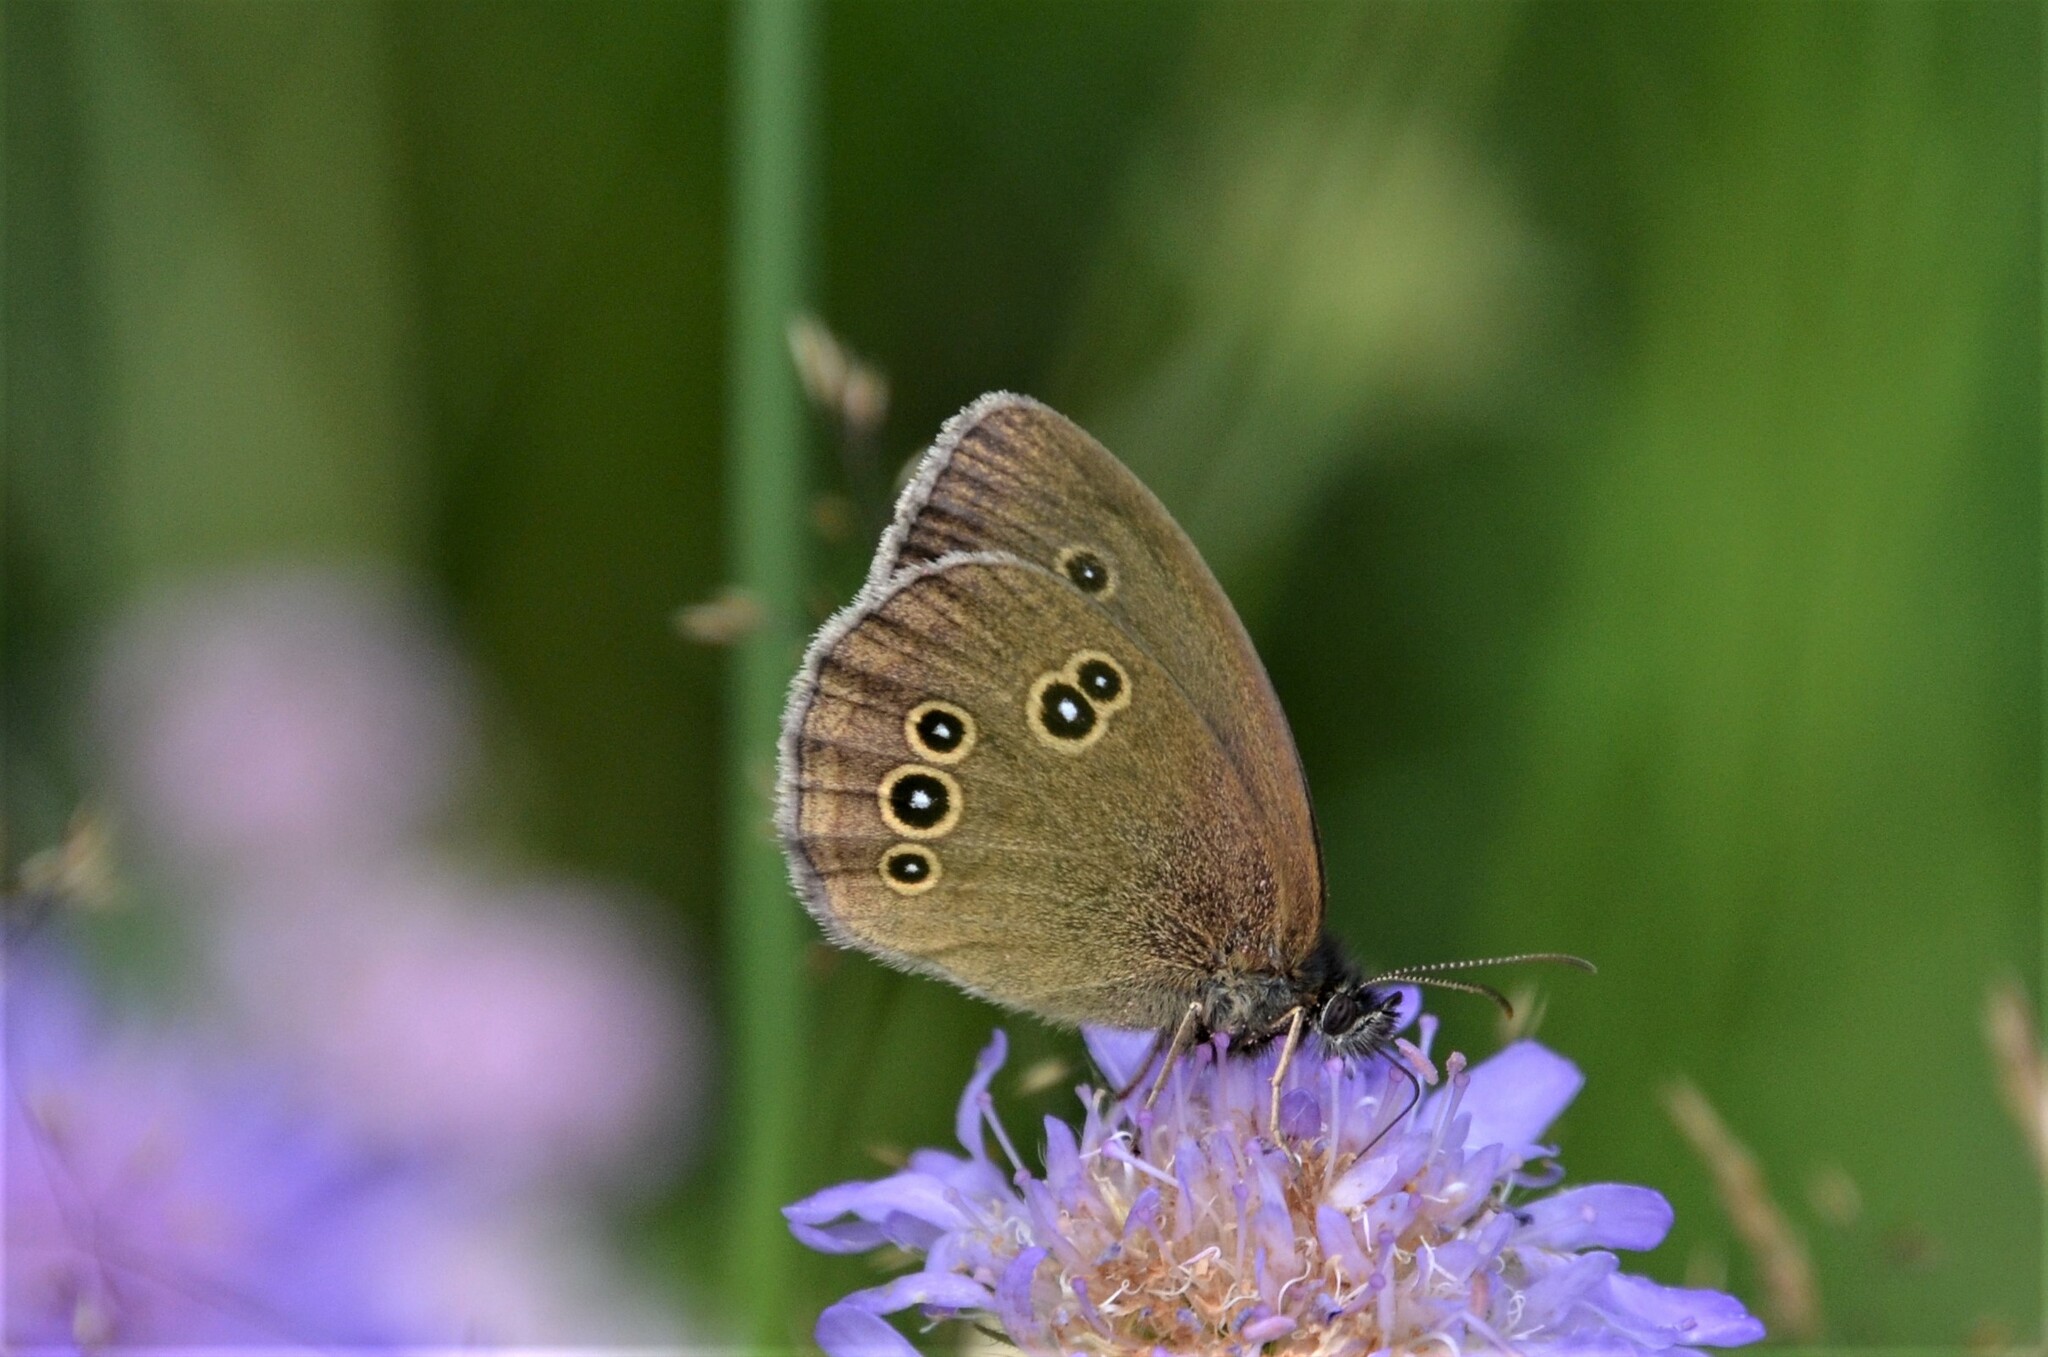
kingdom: Animalia
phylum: Arthropoda
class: Insecta
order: Lepidoptera
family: Nymphalidae
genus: Aphantopus
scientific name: Aphantopus hyperantus
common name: Ringlet
